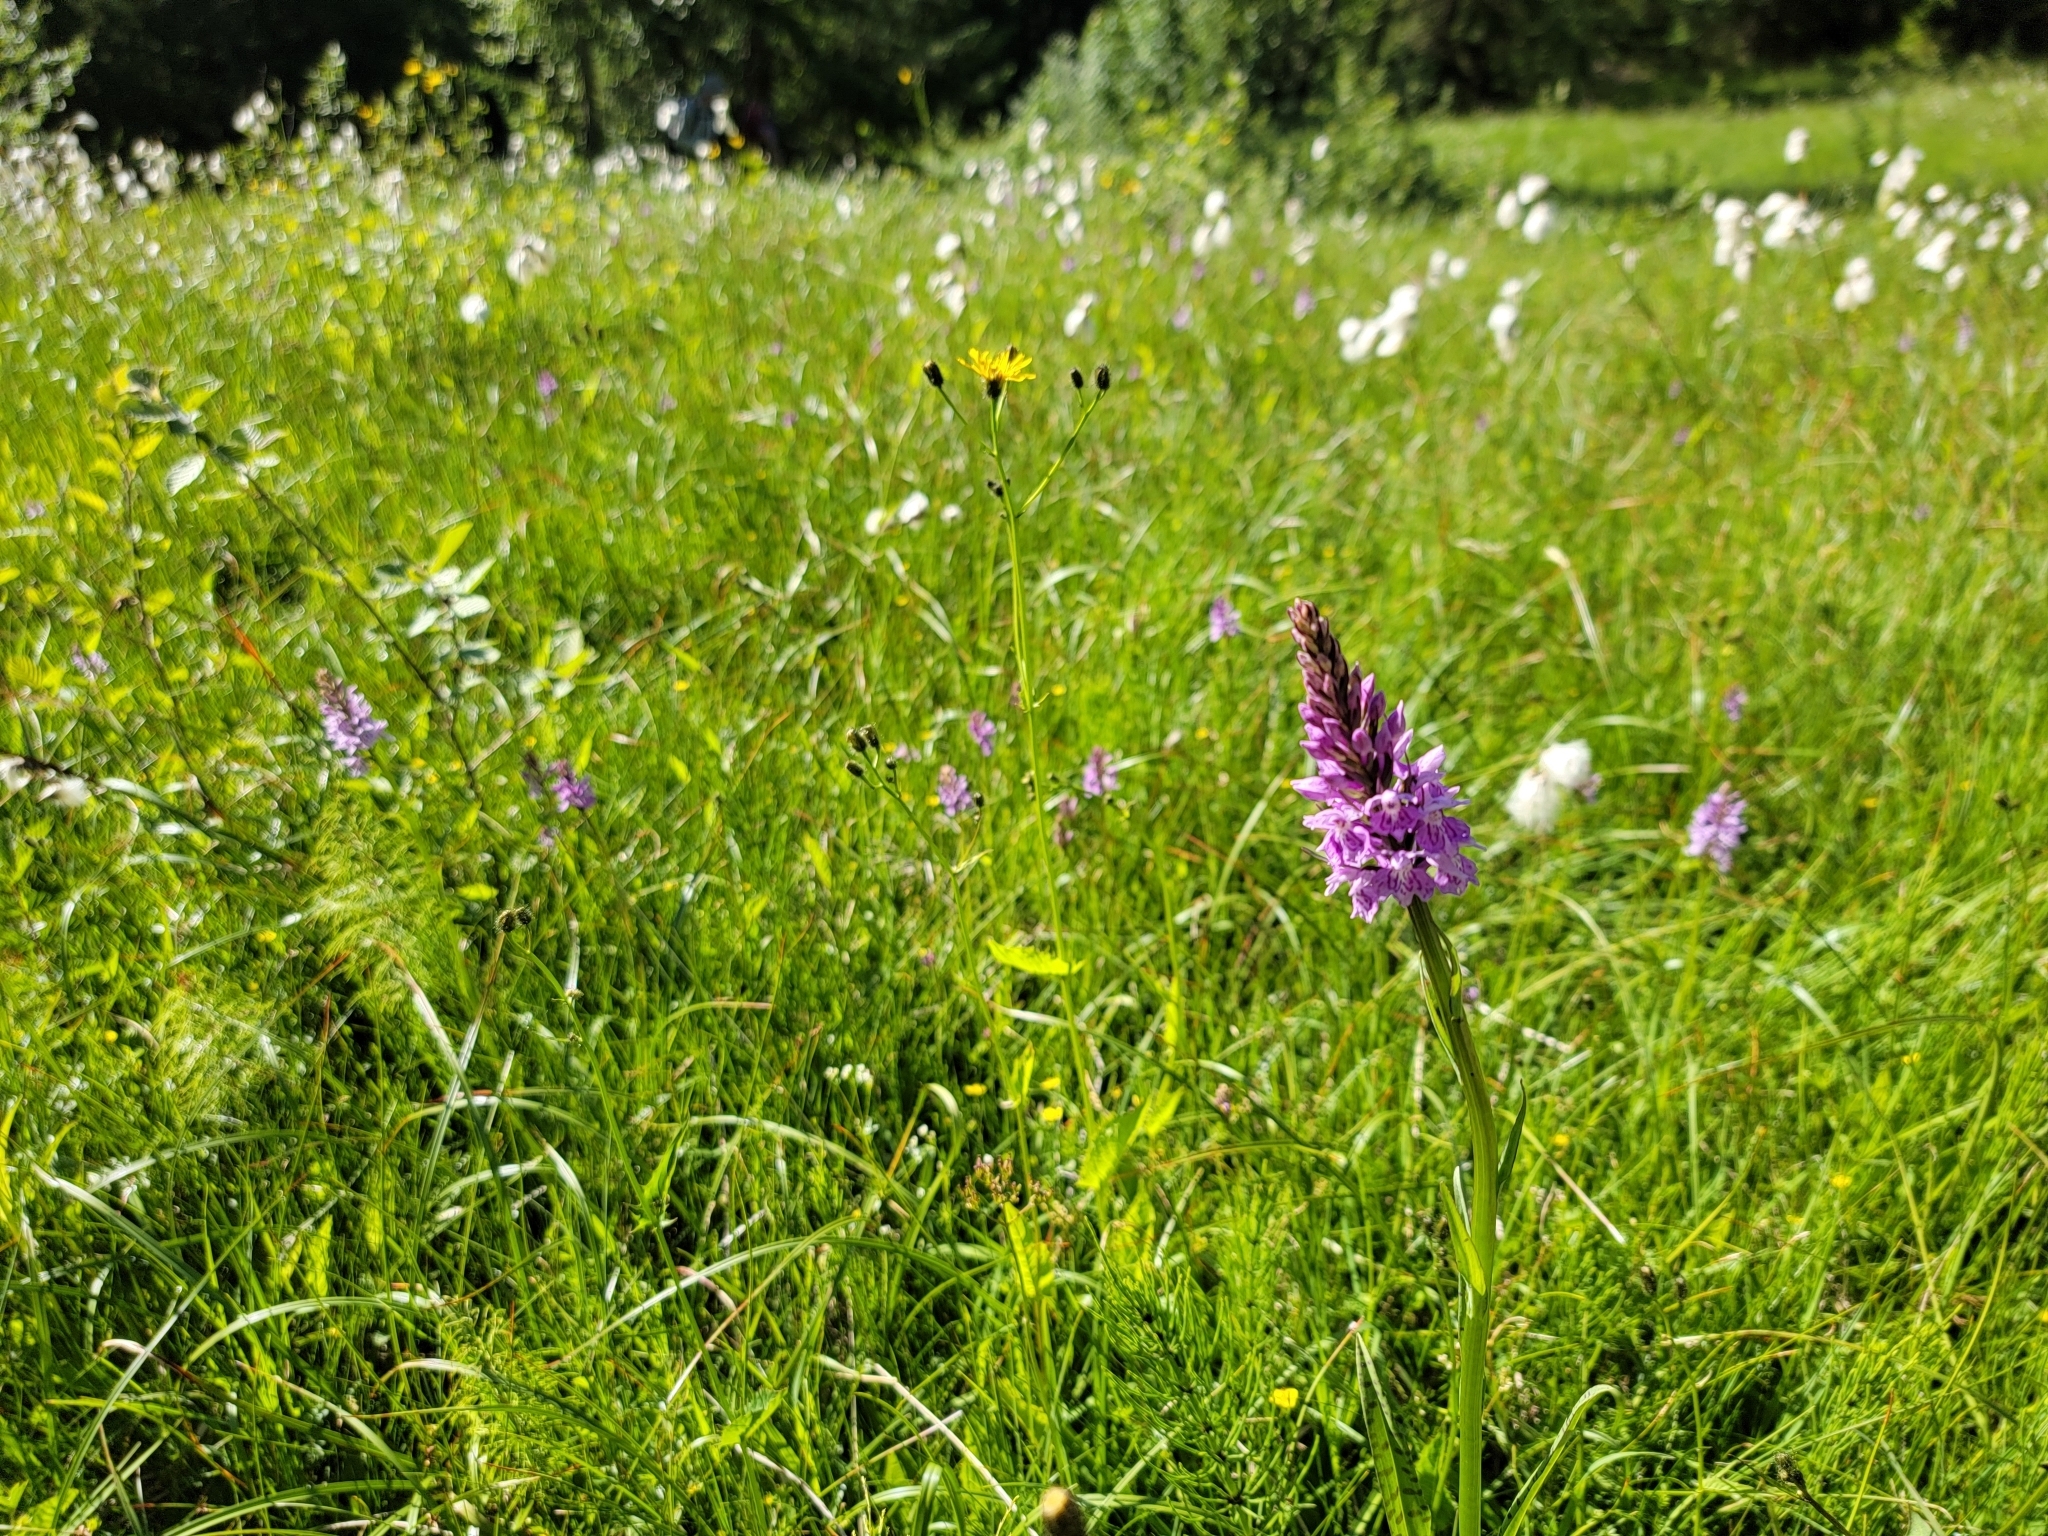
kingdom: Plantae
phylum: Tracheophyta
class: Liliopsida
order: Asparagales
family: Orchidaceae
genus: Dactylorhiza
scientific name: Dactylorhiza maculata
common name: Heath spotted-orchid
